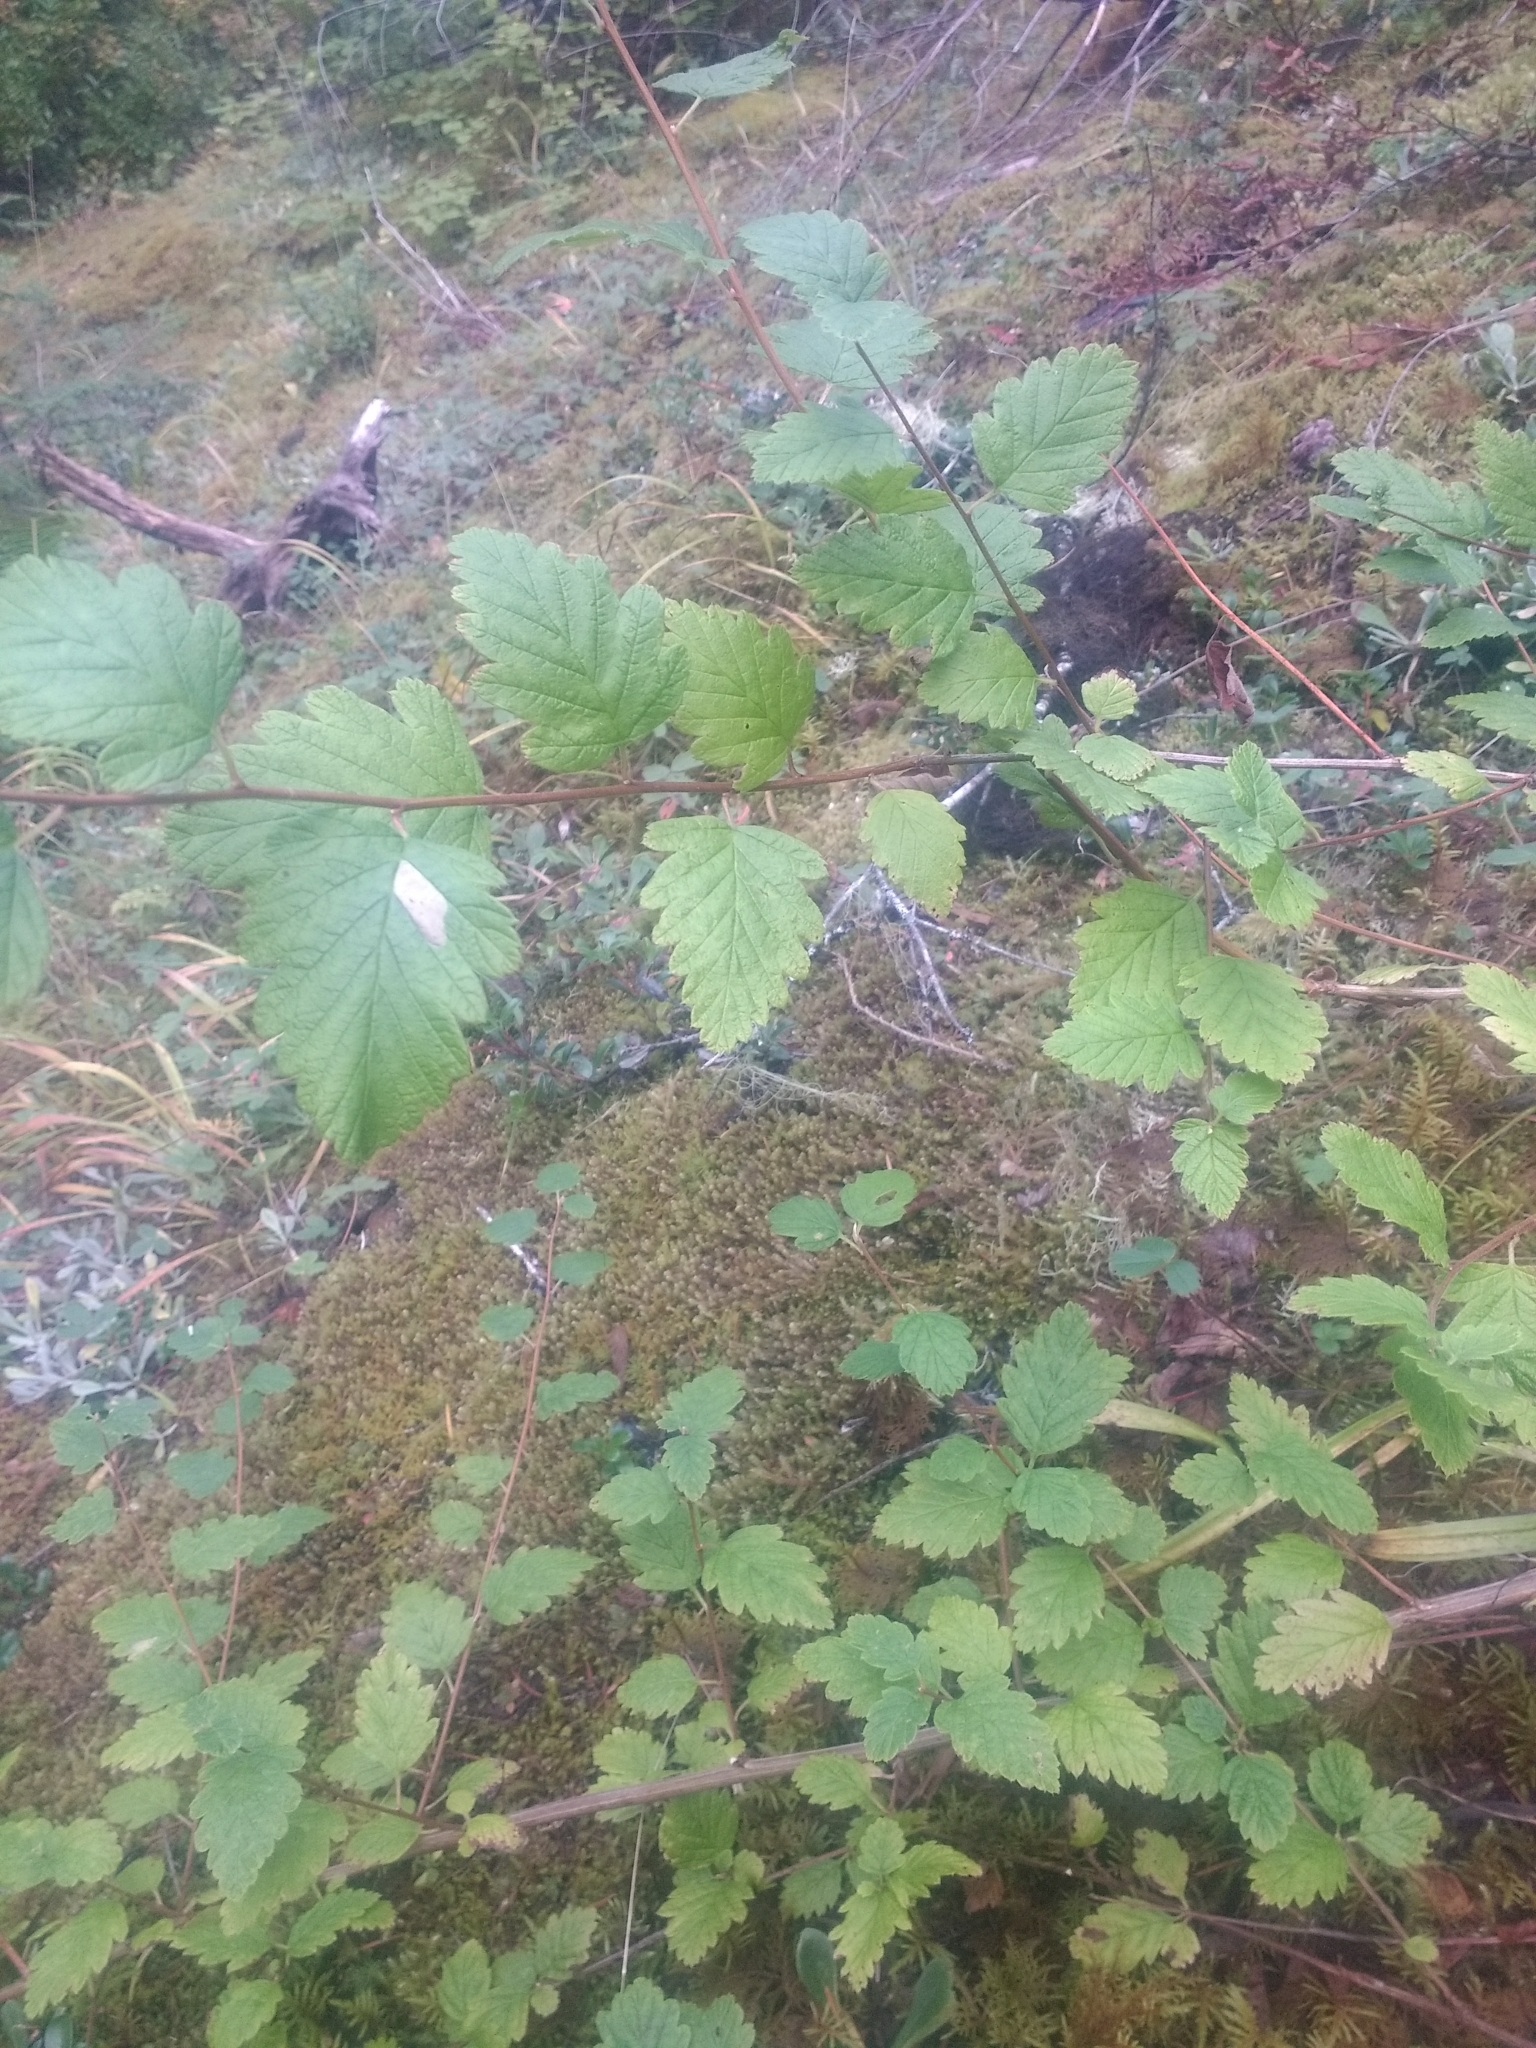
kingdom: Plantae
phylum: Tracheophyta
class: Magnoliopsida
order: Rosales
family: Rosaceae
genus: Holodiscus
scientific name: Holodiscus discolor
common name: Oceanspray
